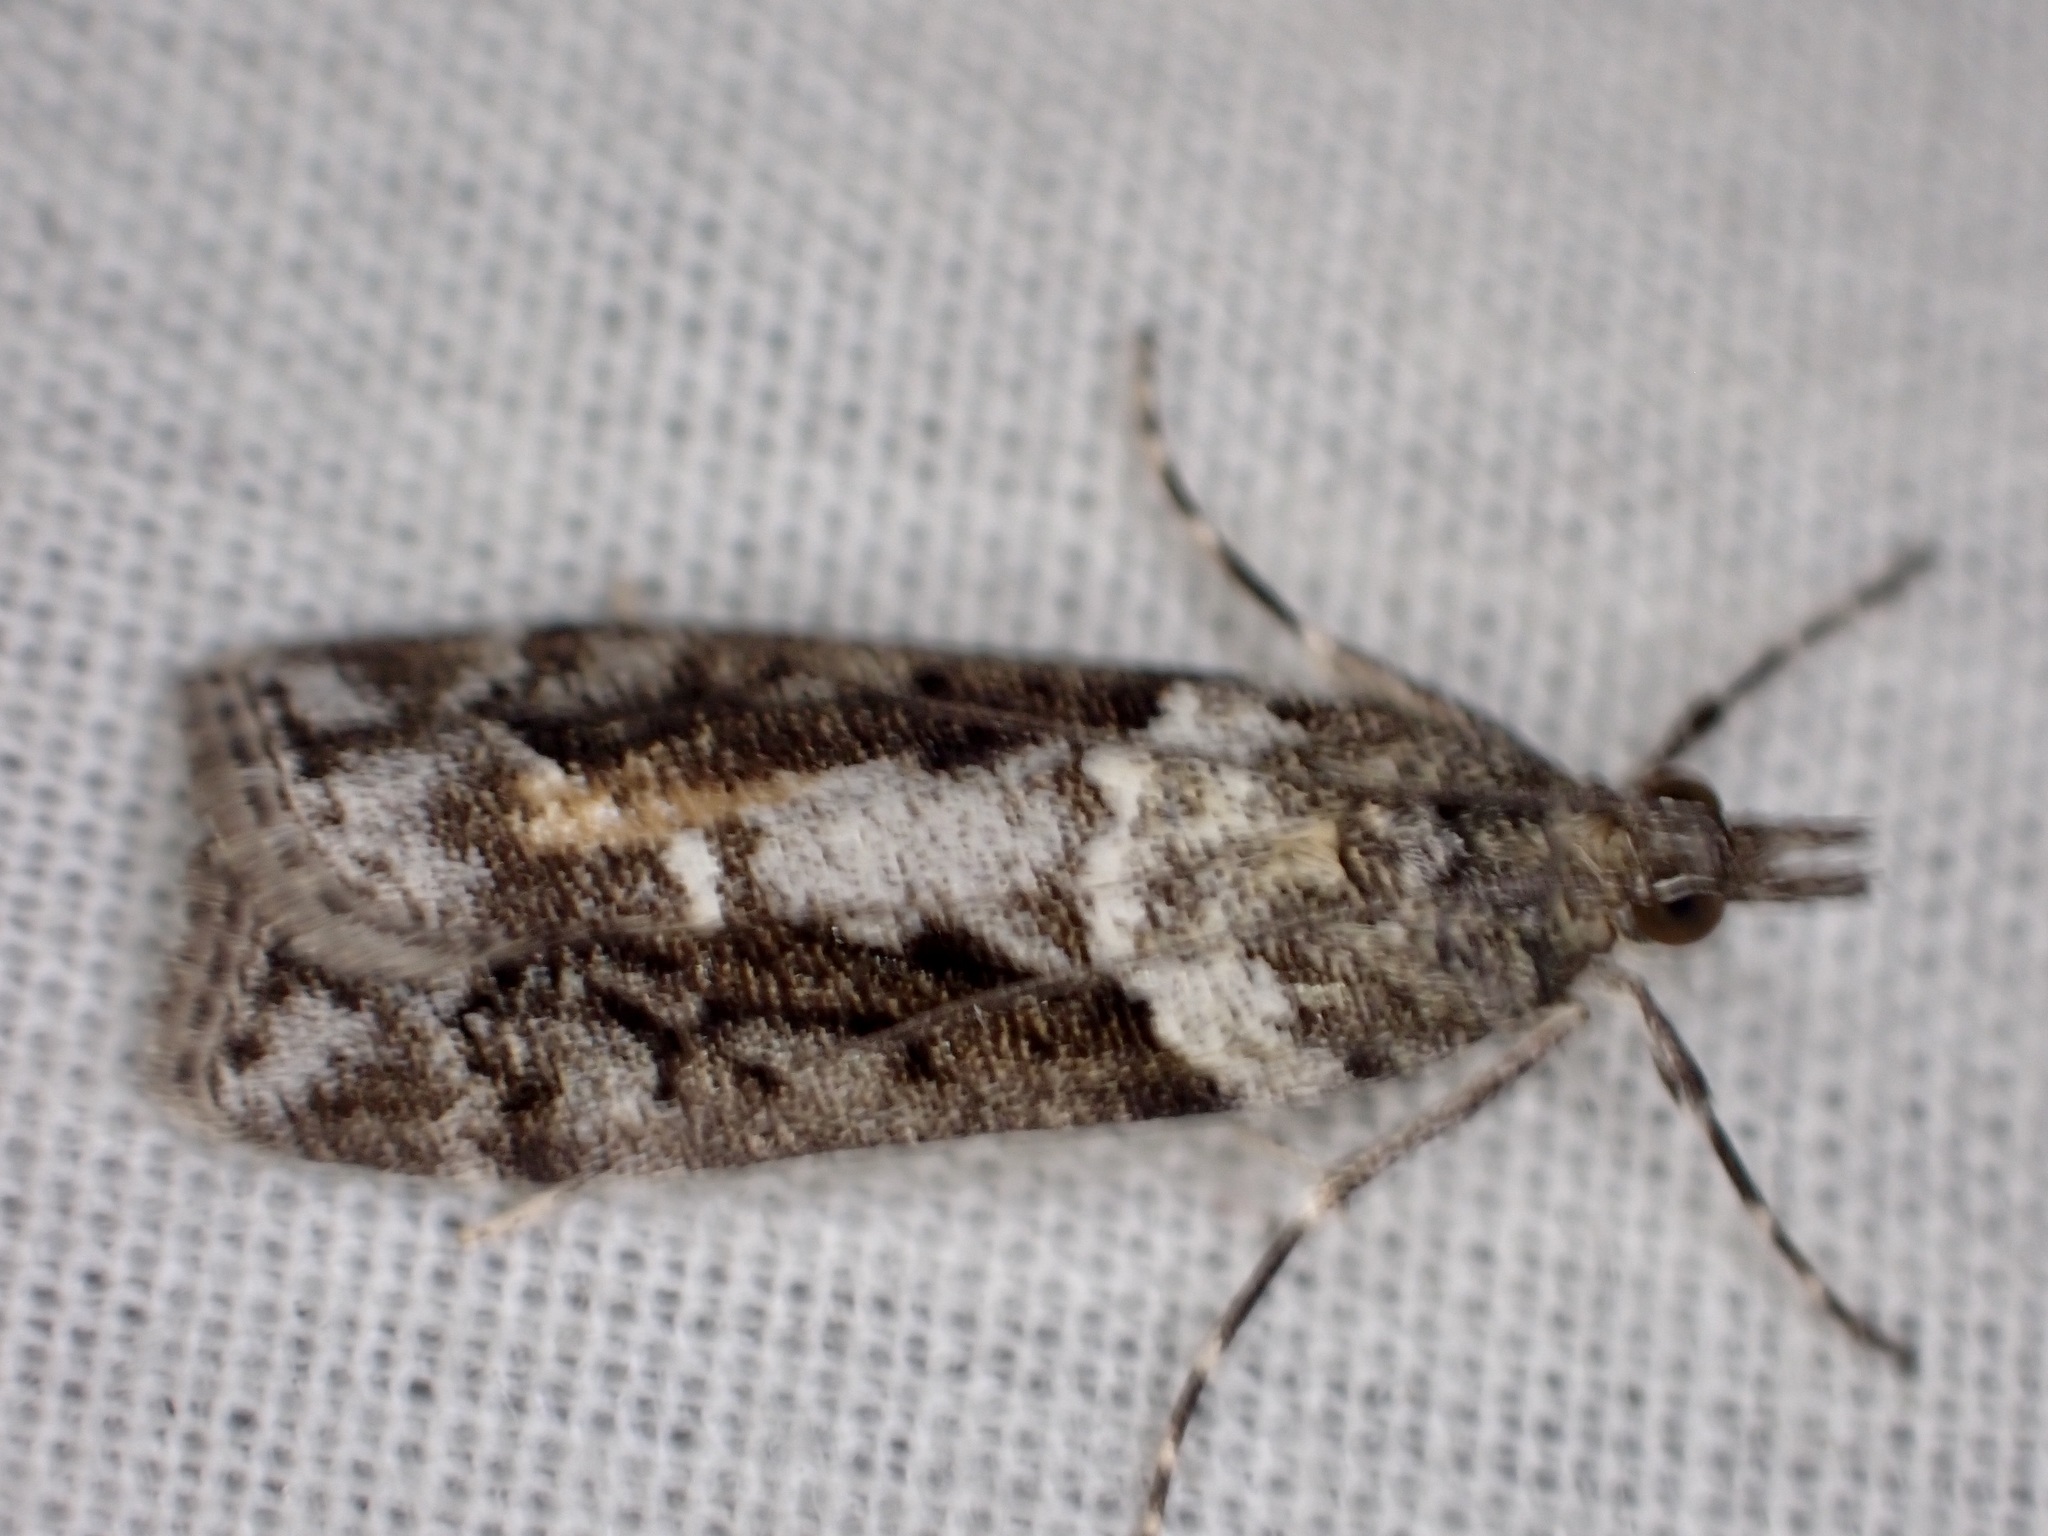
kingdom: Animalia
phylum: Arthropoda
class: Insecta
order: Lepidoptera
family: Crambidae
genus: Eudonia
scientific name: Eudonia submarginalis
